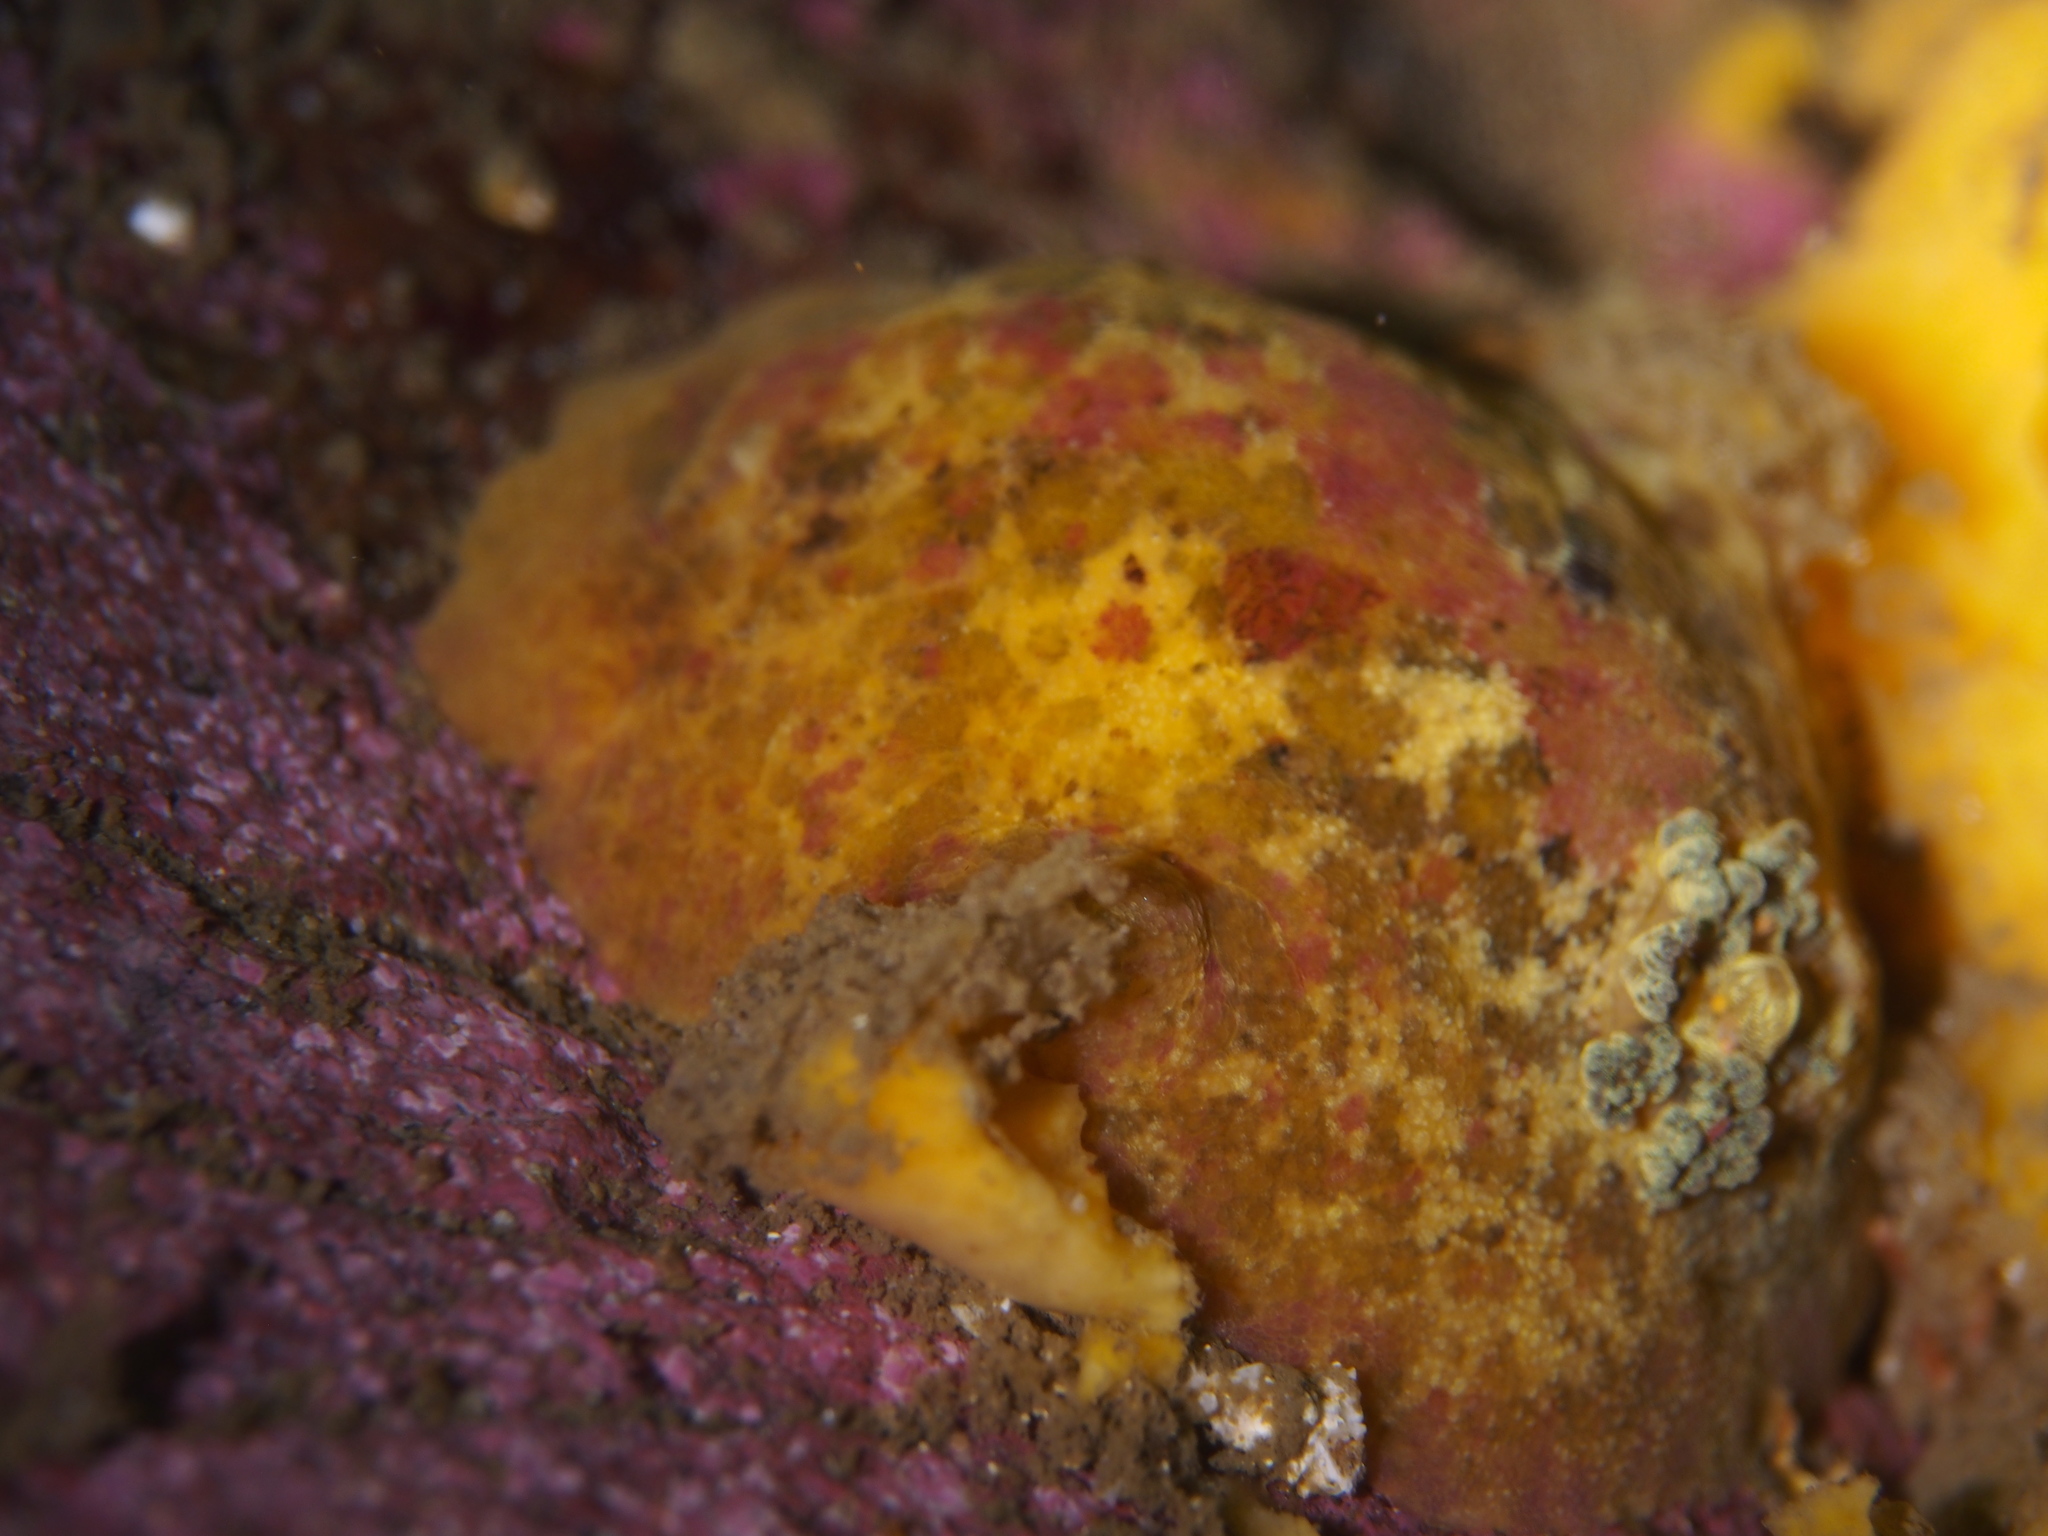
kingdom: Animalia
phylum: Mollusca
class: Gastropoda
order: Nudibranchia
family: Dorididae
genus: Doris
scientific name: Doris pseudoargus
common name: Sea lemon
